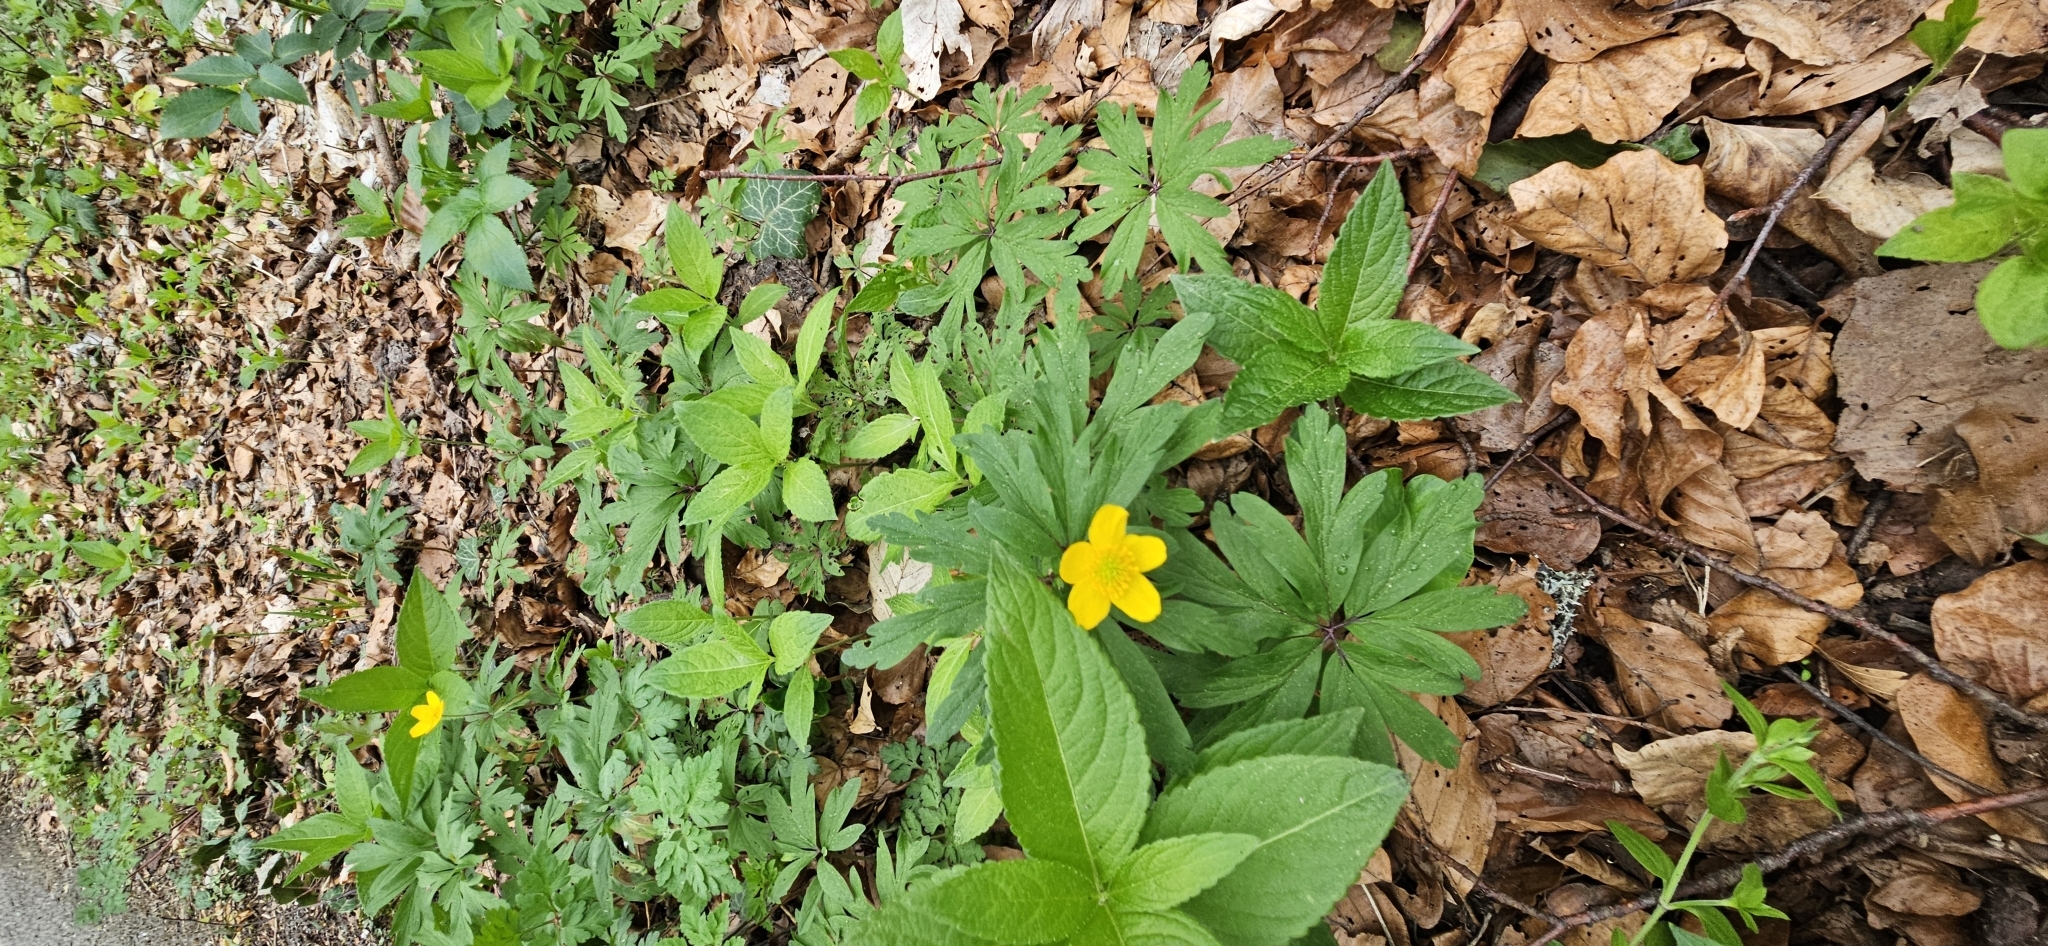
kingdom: Plantae
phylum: Tracheophyta
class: Magnoliopsida
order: Ranunculales
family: Ranunculaceae
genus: Anemone
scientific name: Anemone ranunculoides
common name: Yellow anemone
